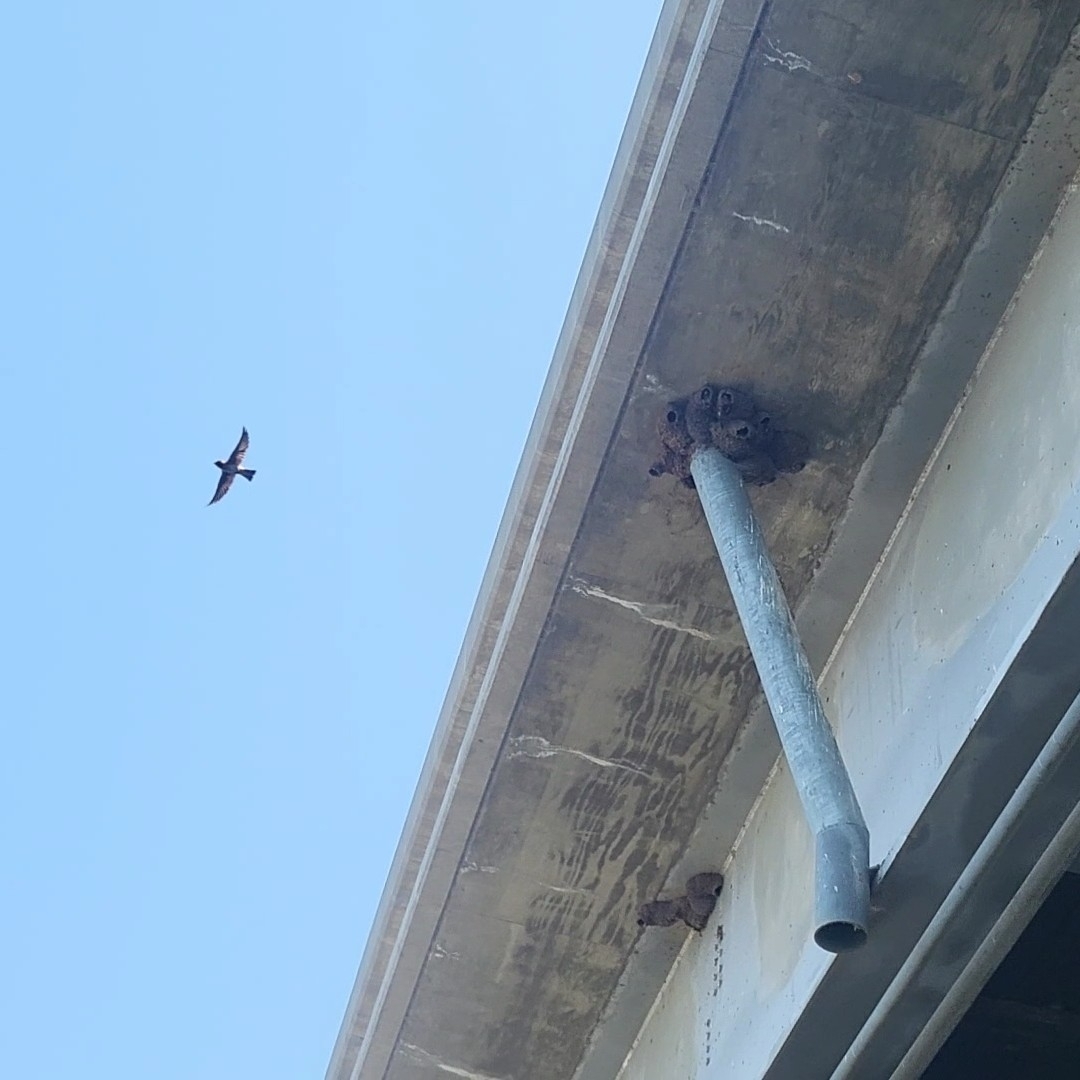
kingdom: Animalia
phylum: Chordata
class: Aves
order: Passeriformes
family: Hirundinidae
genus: Petrochelidon
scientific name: Petrochelidon pyrrhonota
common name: American cliff swallow
